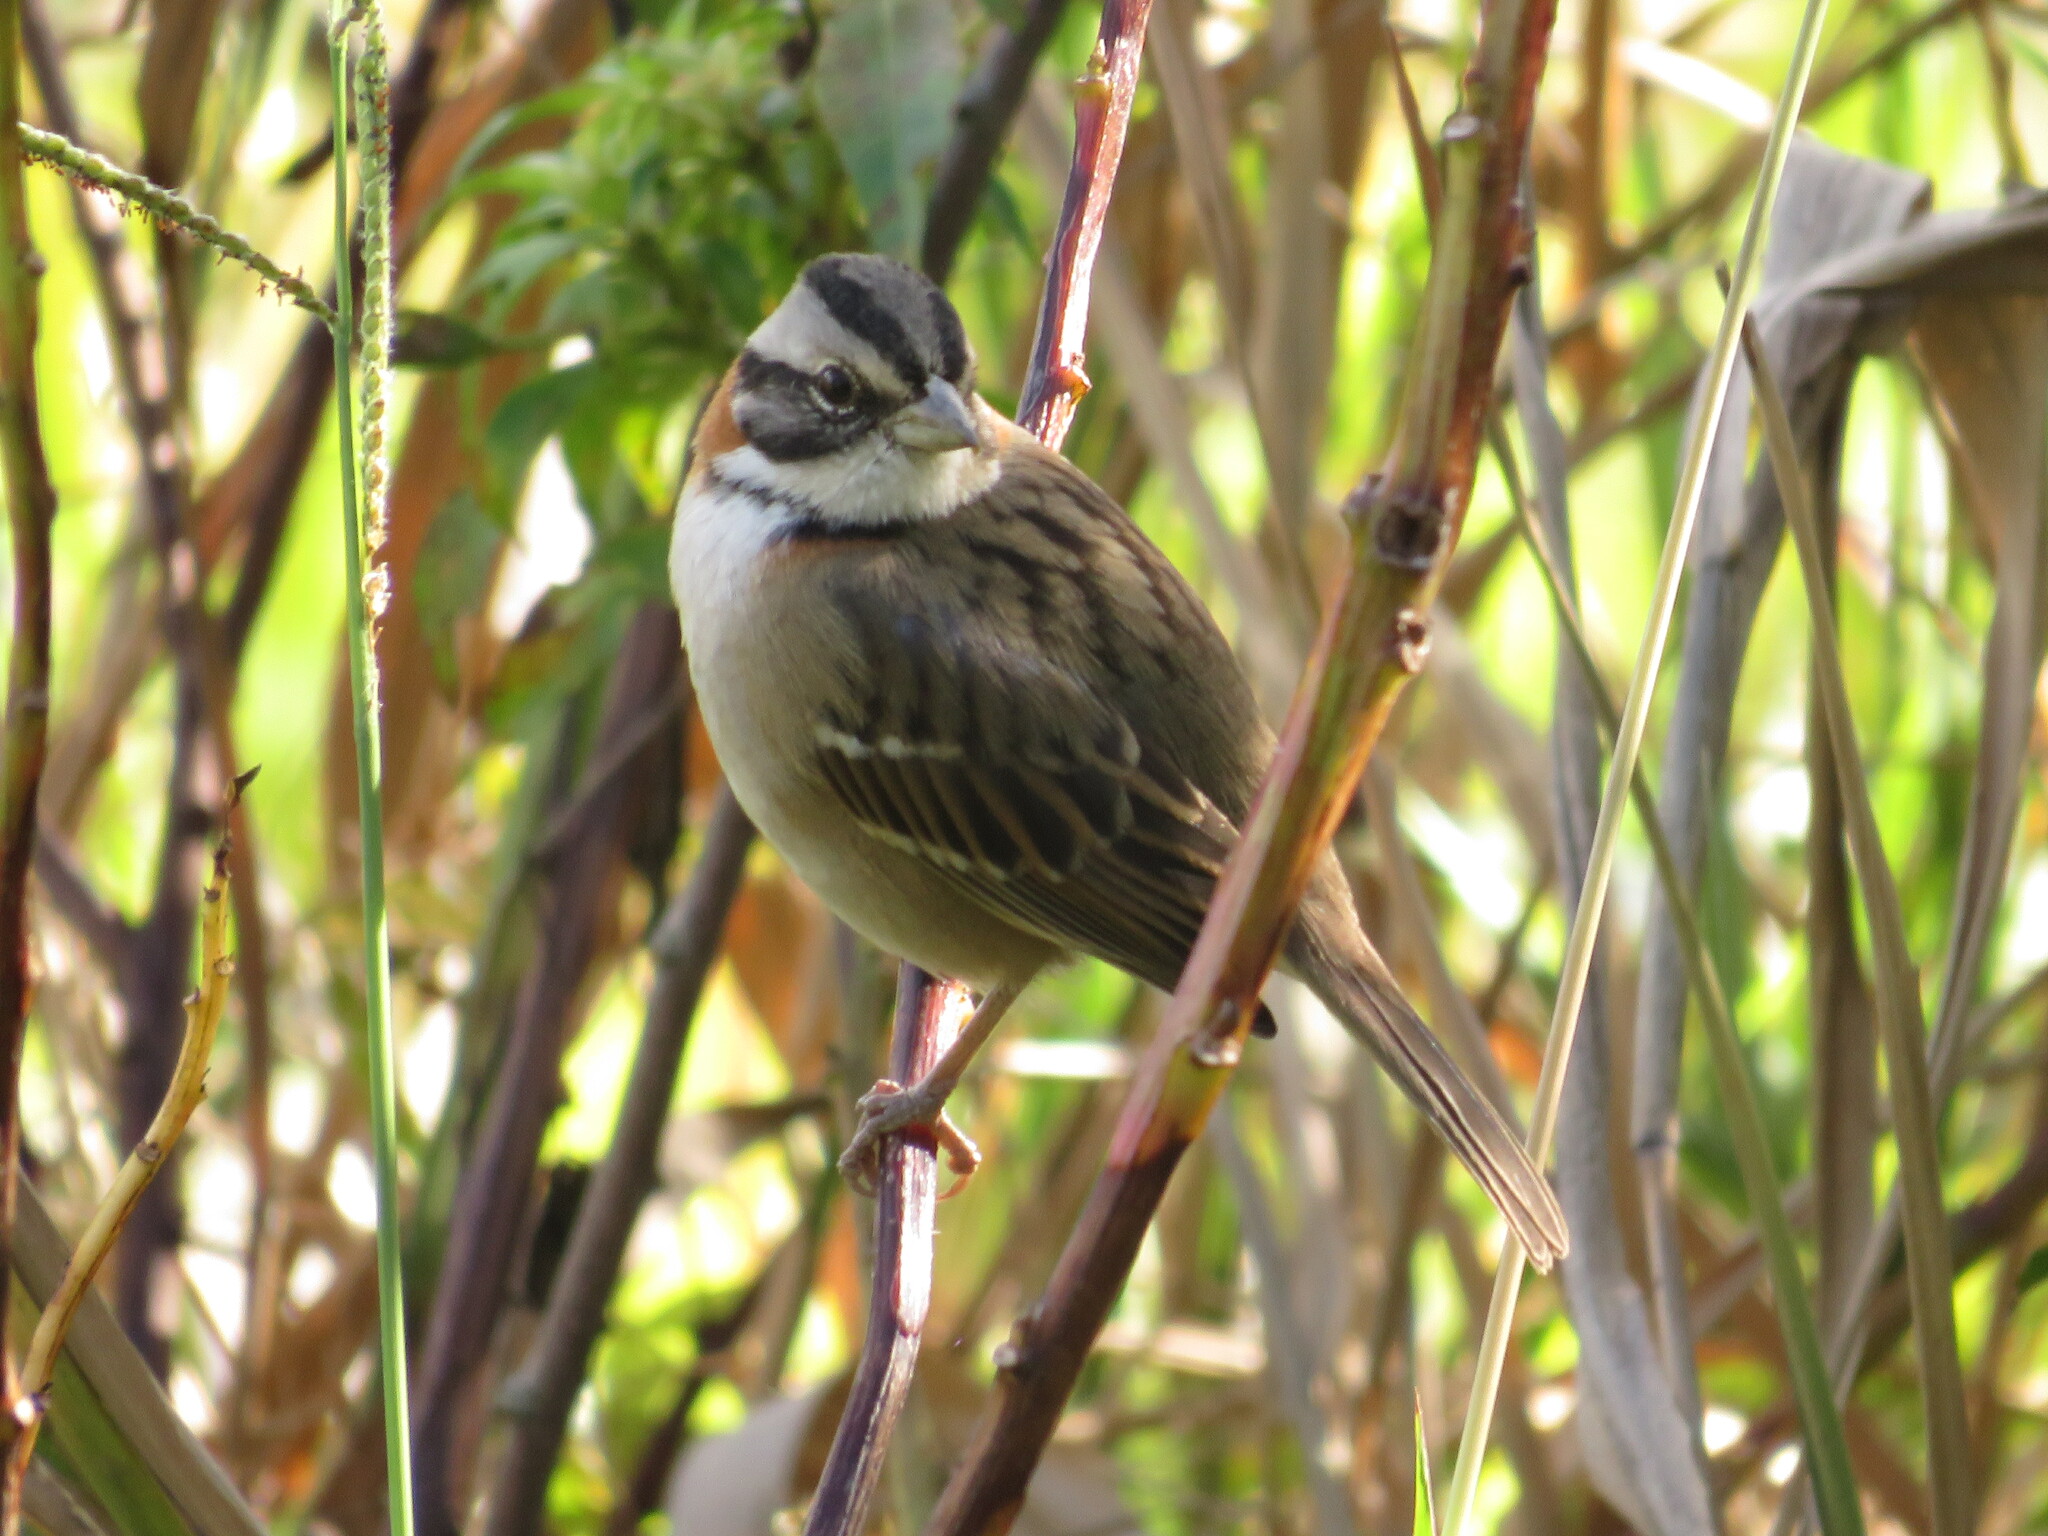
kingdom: Animalia
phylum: Chordata
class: Aves
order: Passeriformes
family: Passerellidae
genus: Zonotrichia
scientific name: Zonotrichia capensis
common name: Rufous-collared sparrow
